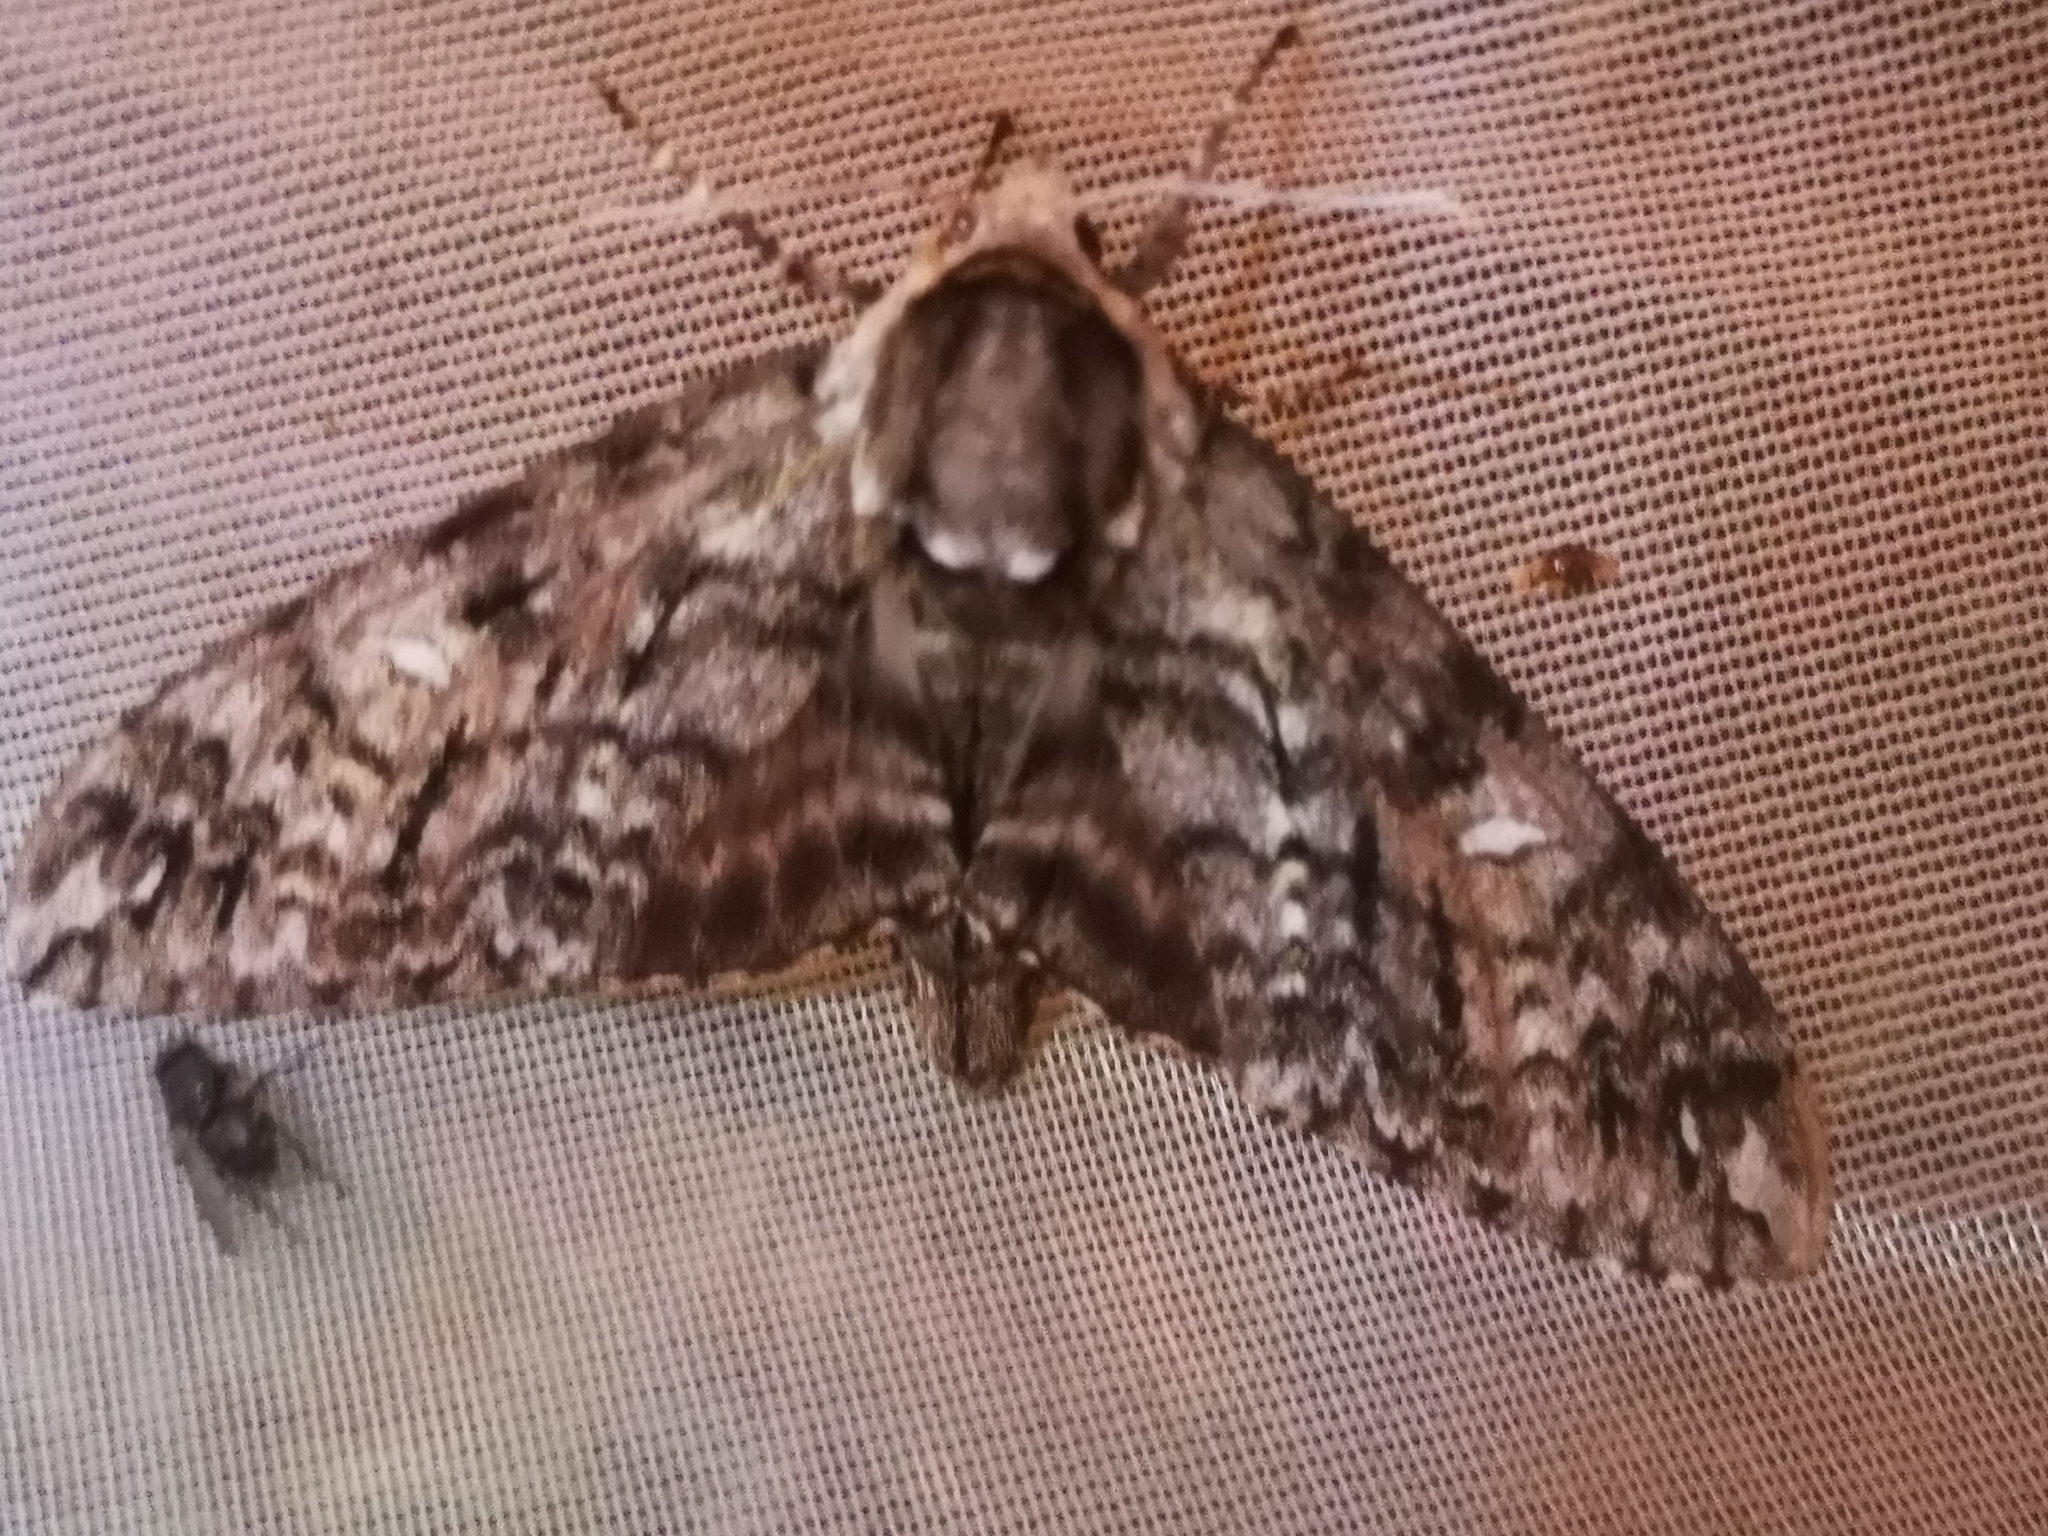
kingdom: Animalia
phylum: Arthropoda
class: Insecta
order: Lepidoptera
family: Sphingidae
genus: Ceratomia
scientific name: Ceratomia undulosa
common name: Waved sphinx
